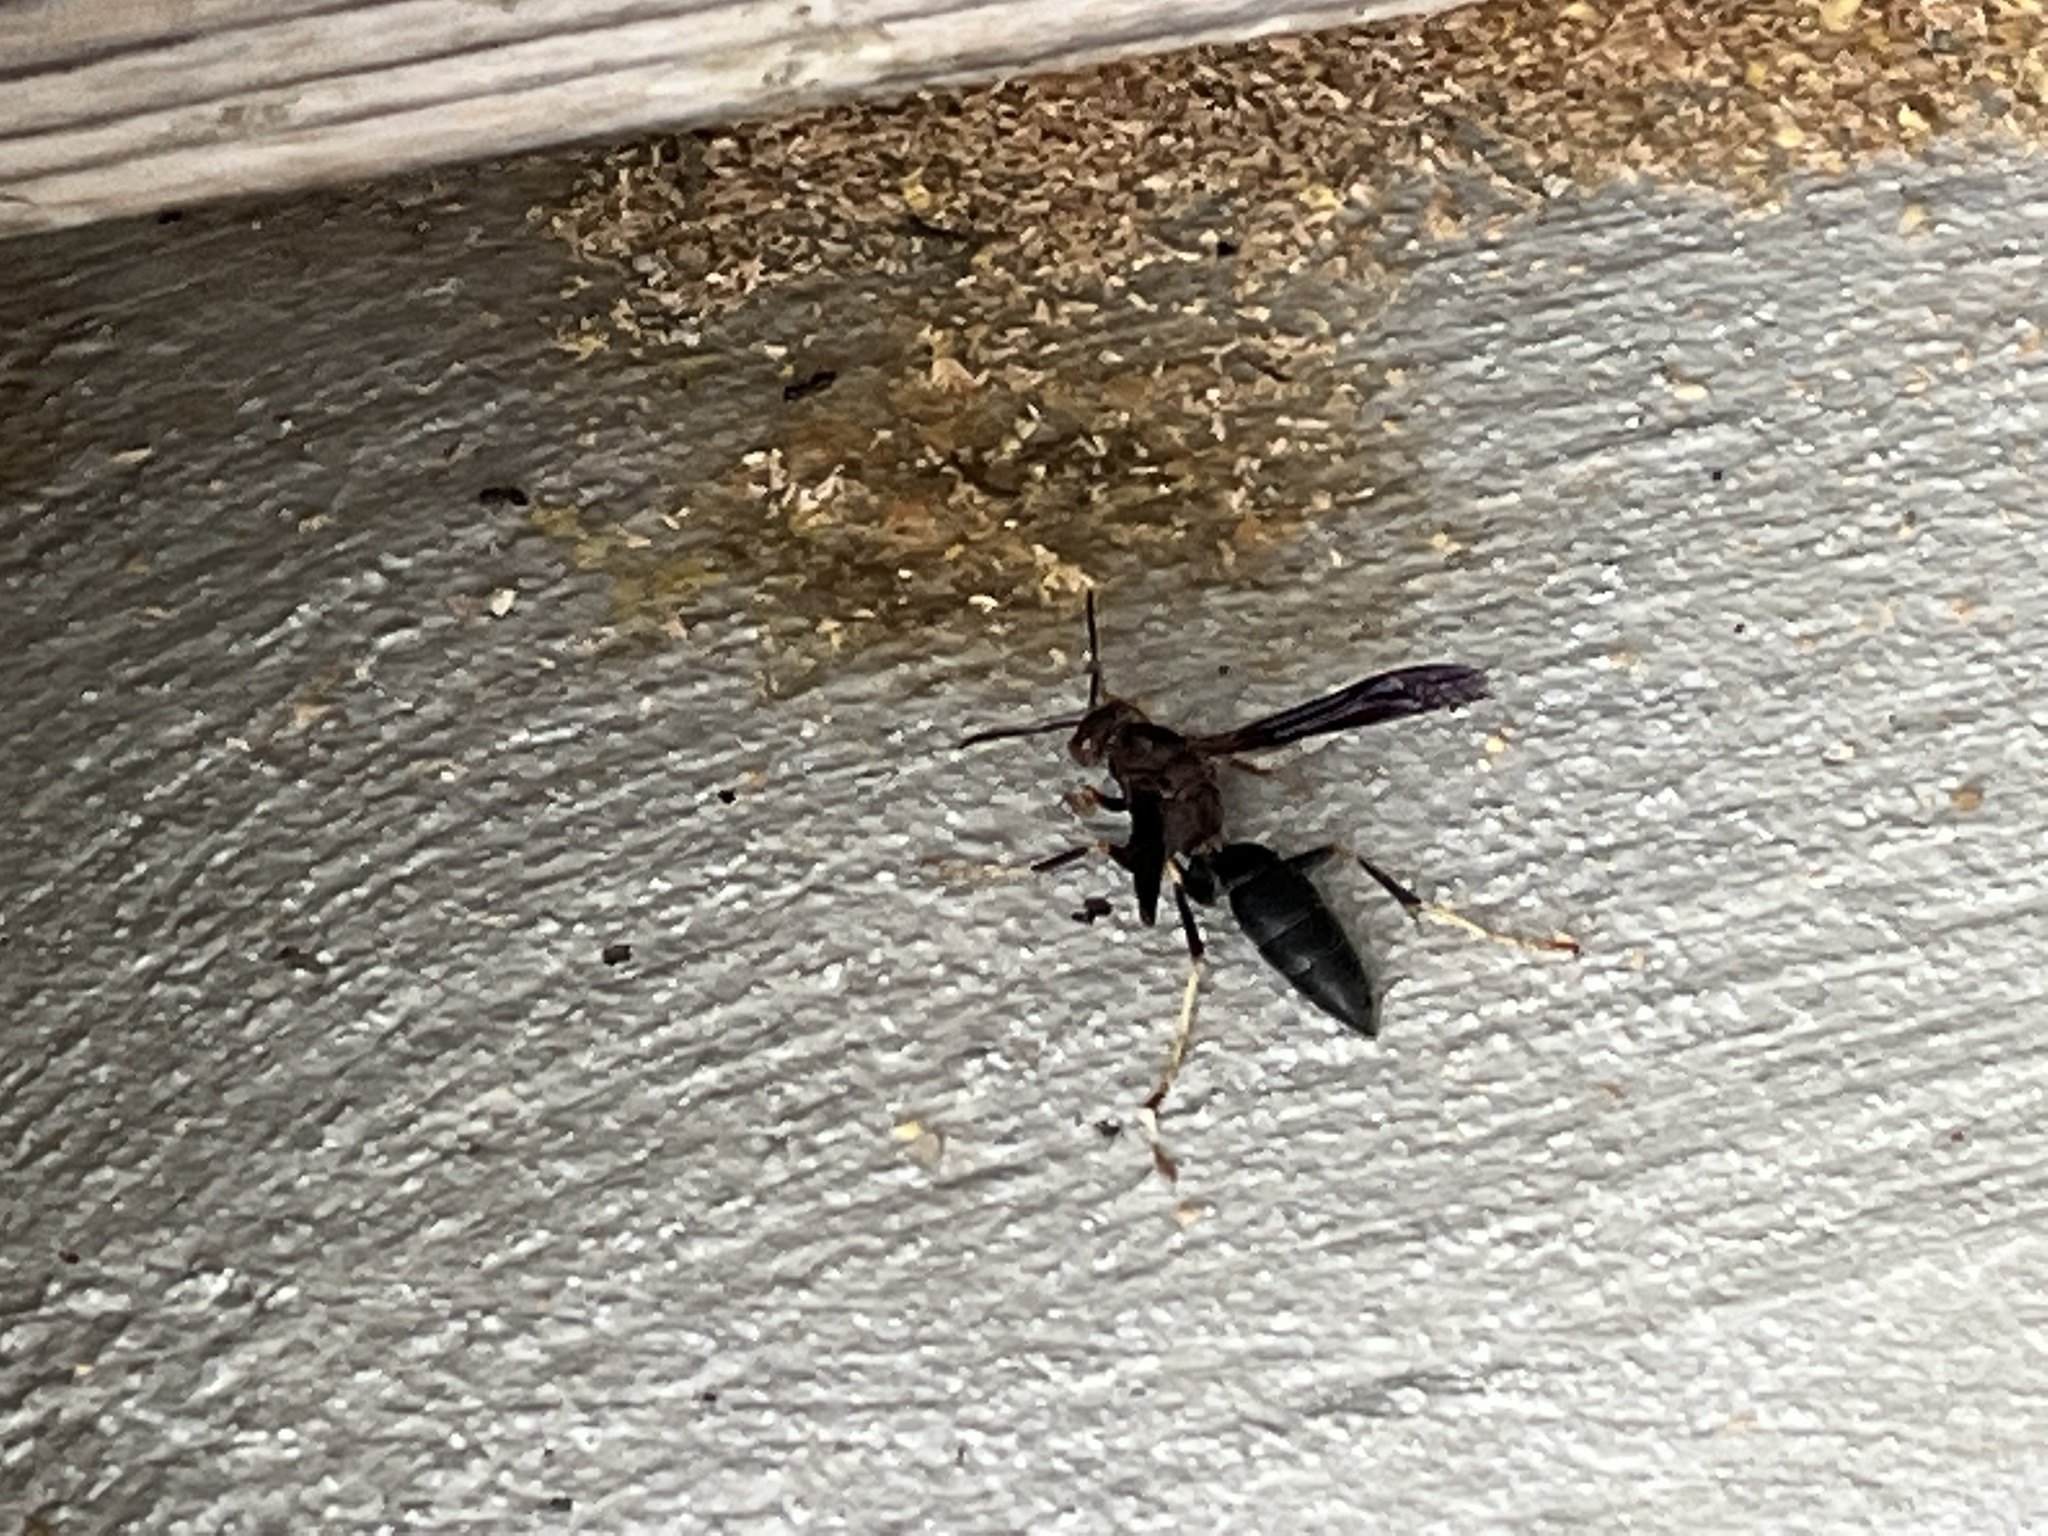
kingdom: Animalia
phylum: Arthropoda
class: Insecta
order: Hymenoptera
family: Eumenidae
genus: Polistes
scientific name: Polistes metricus
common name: Metric paper wasp
